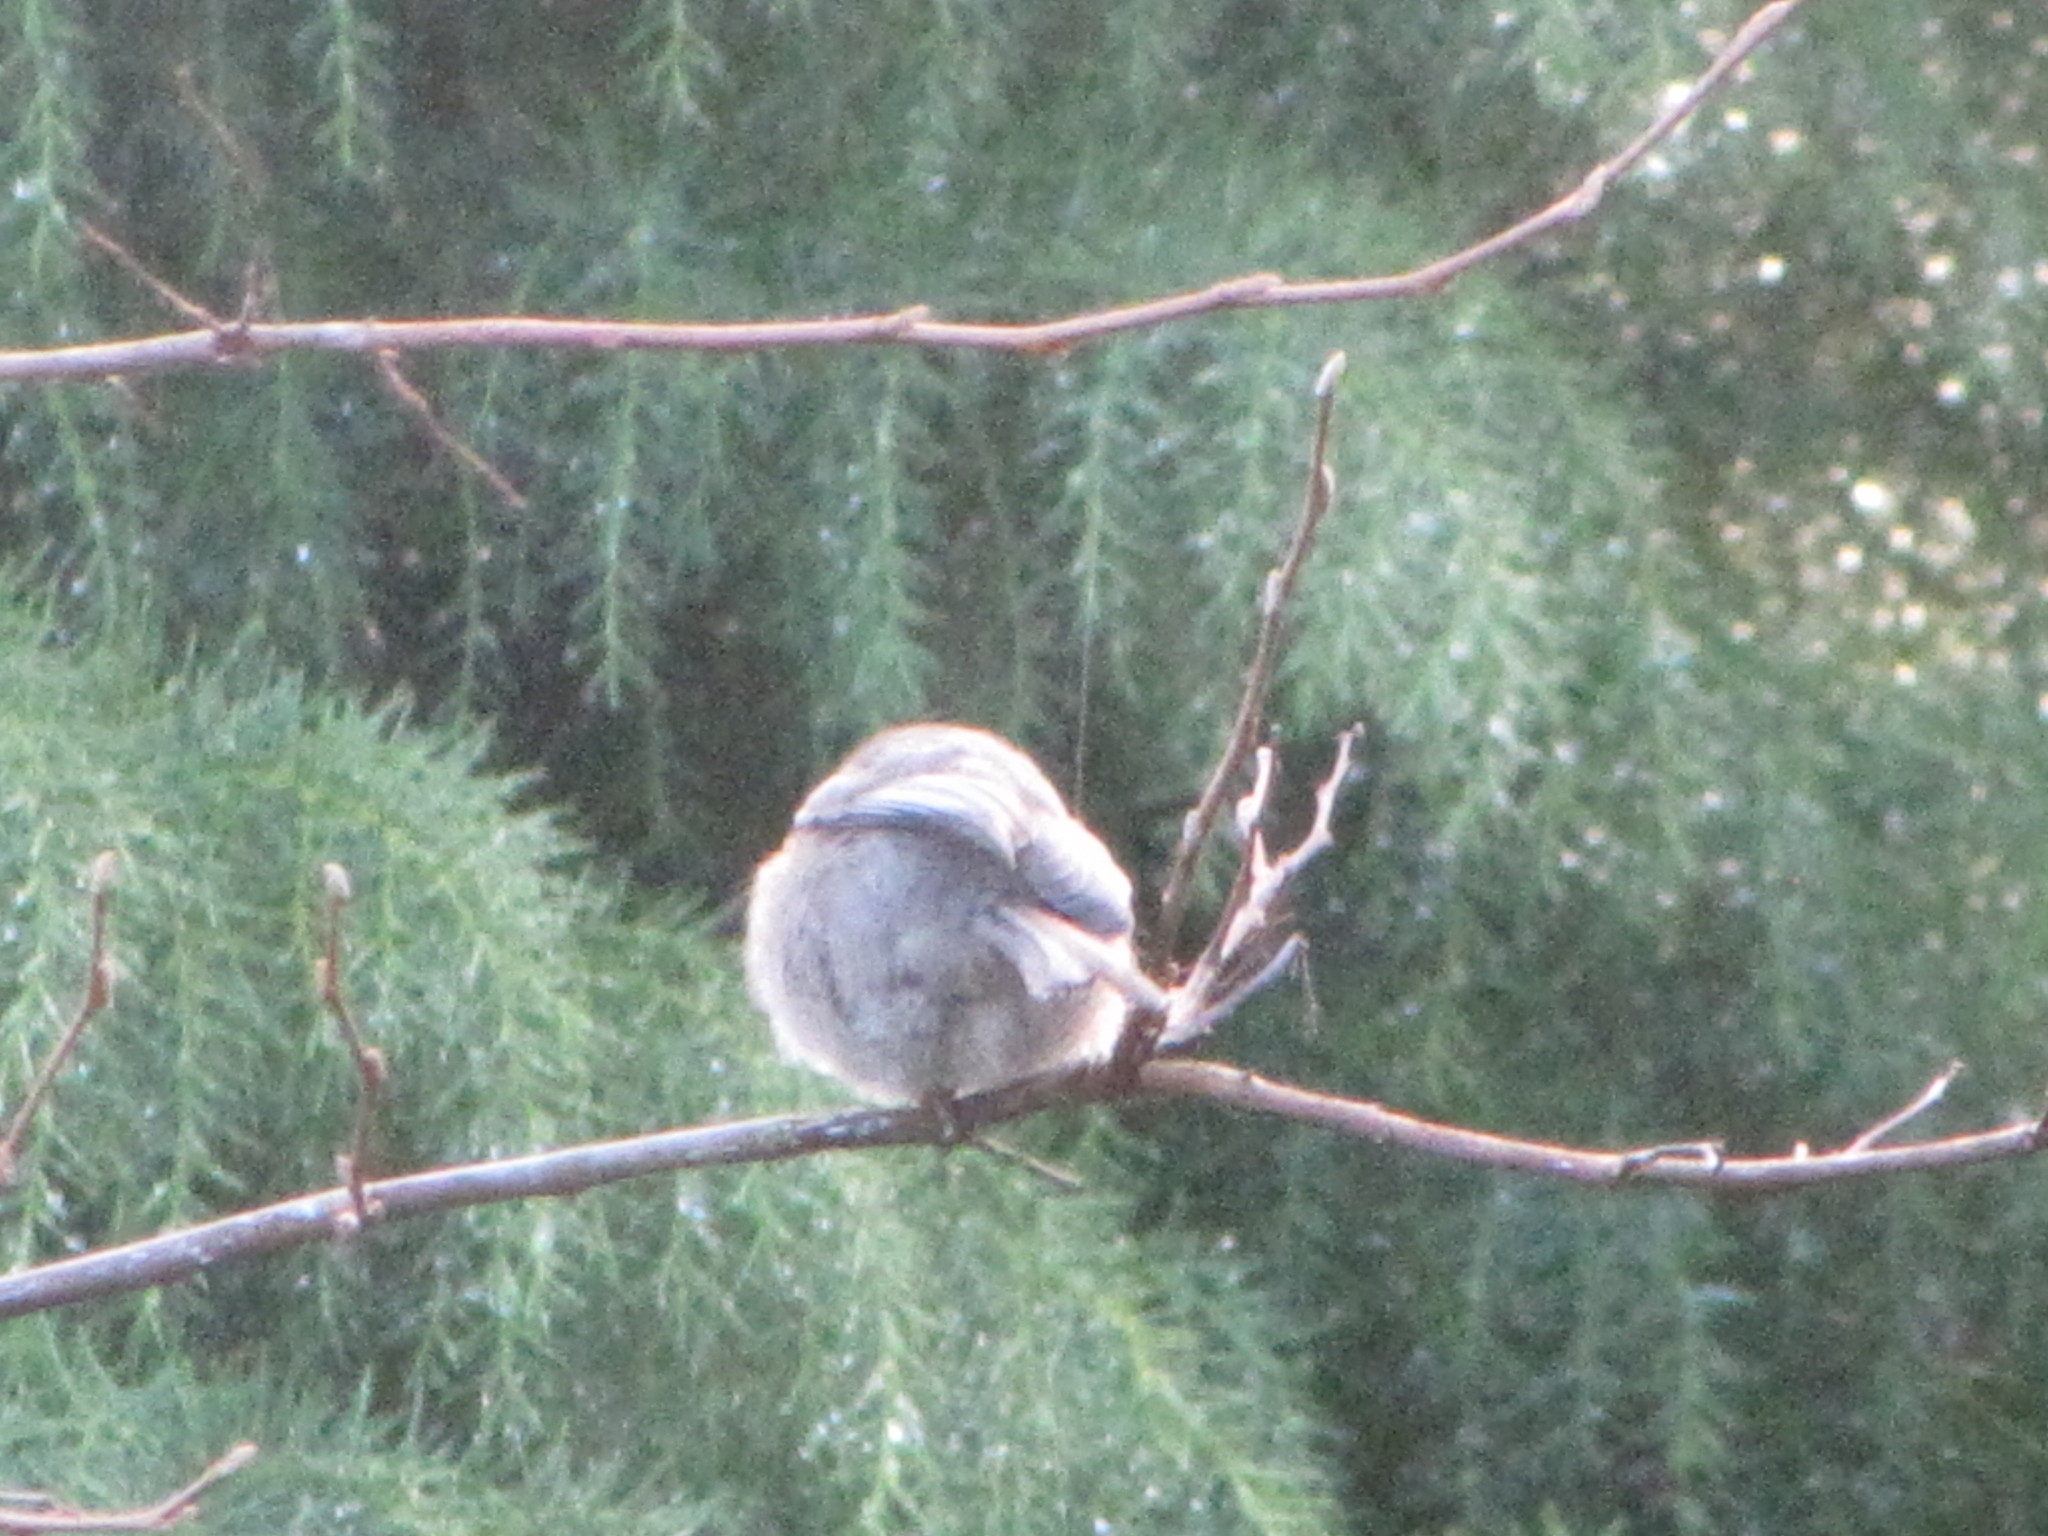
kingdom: Animalia
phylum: Chordata
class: Aves
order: Passeriformes
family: Aegithalidae
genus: Psaltriparus
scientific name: Psaltriparus minimus
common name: American bushtit
